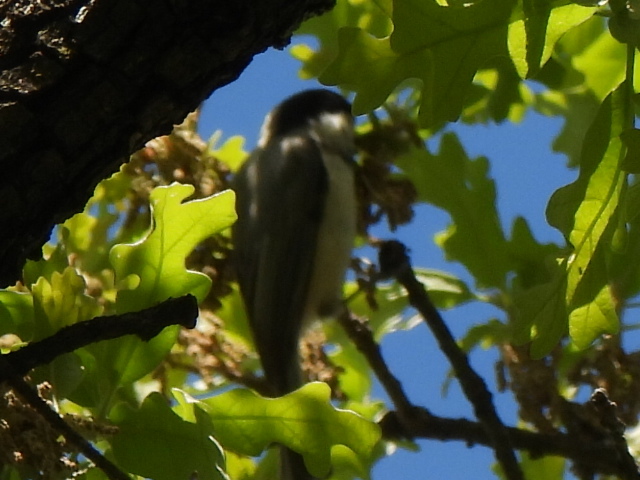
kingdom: Animalia
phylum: Chordata
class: Aves
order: Passeriformes
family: Paridae
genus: Poecile
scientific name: Poecile carolinensis
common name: Carolina chickadee
